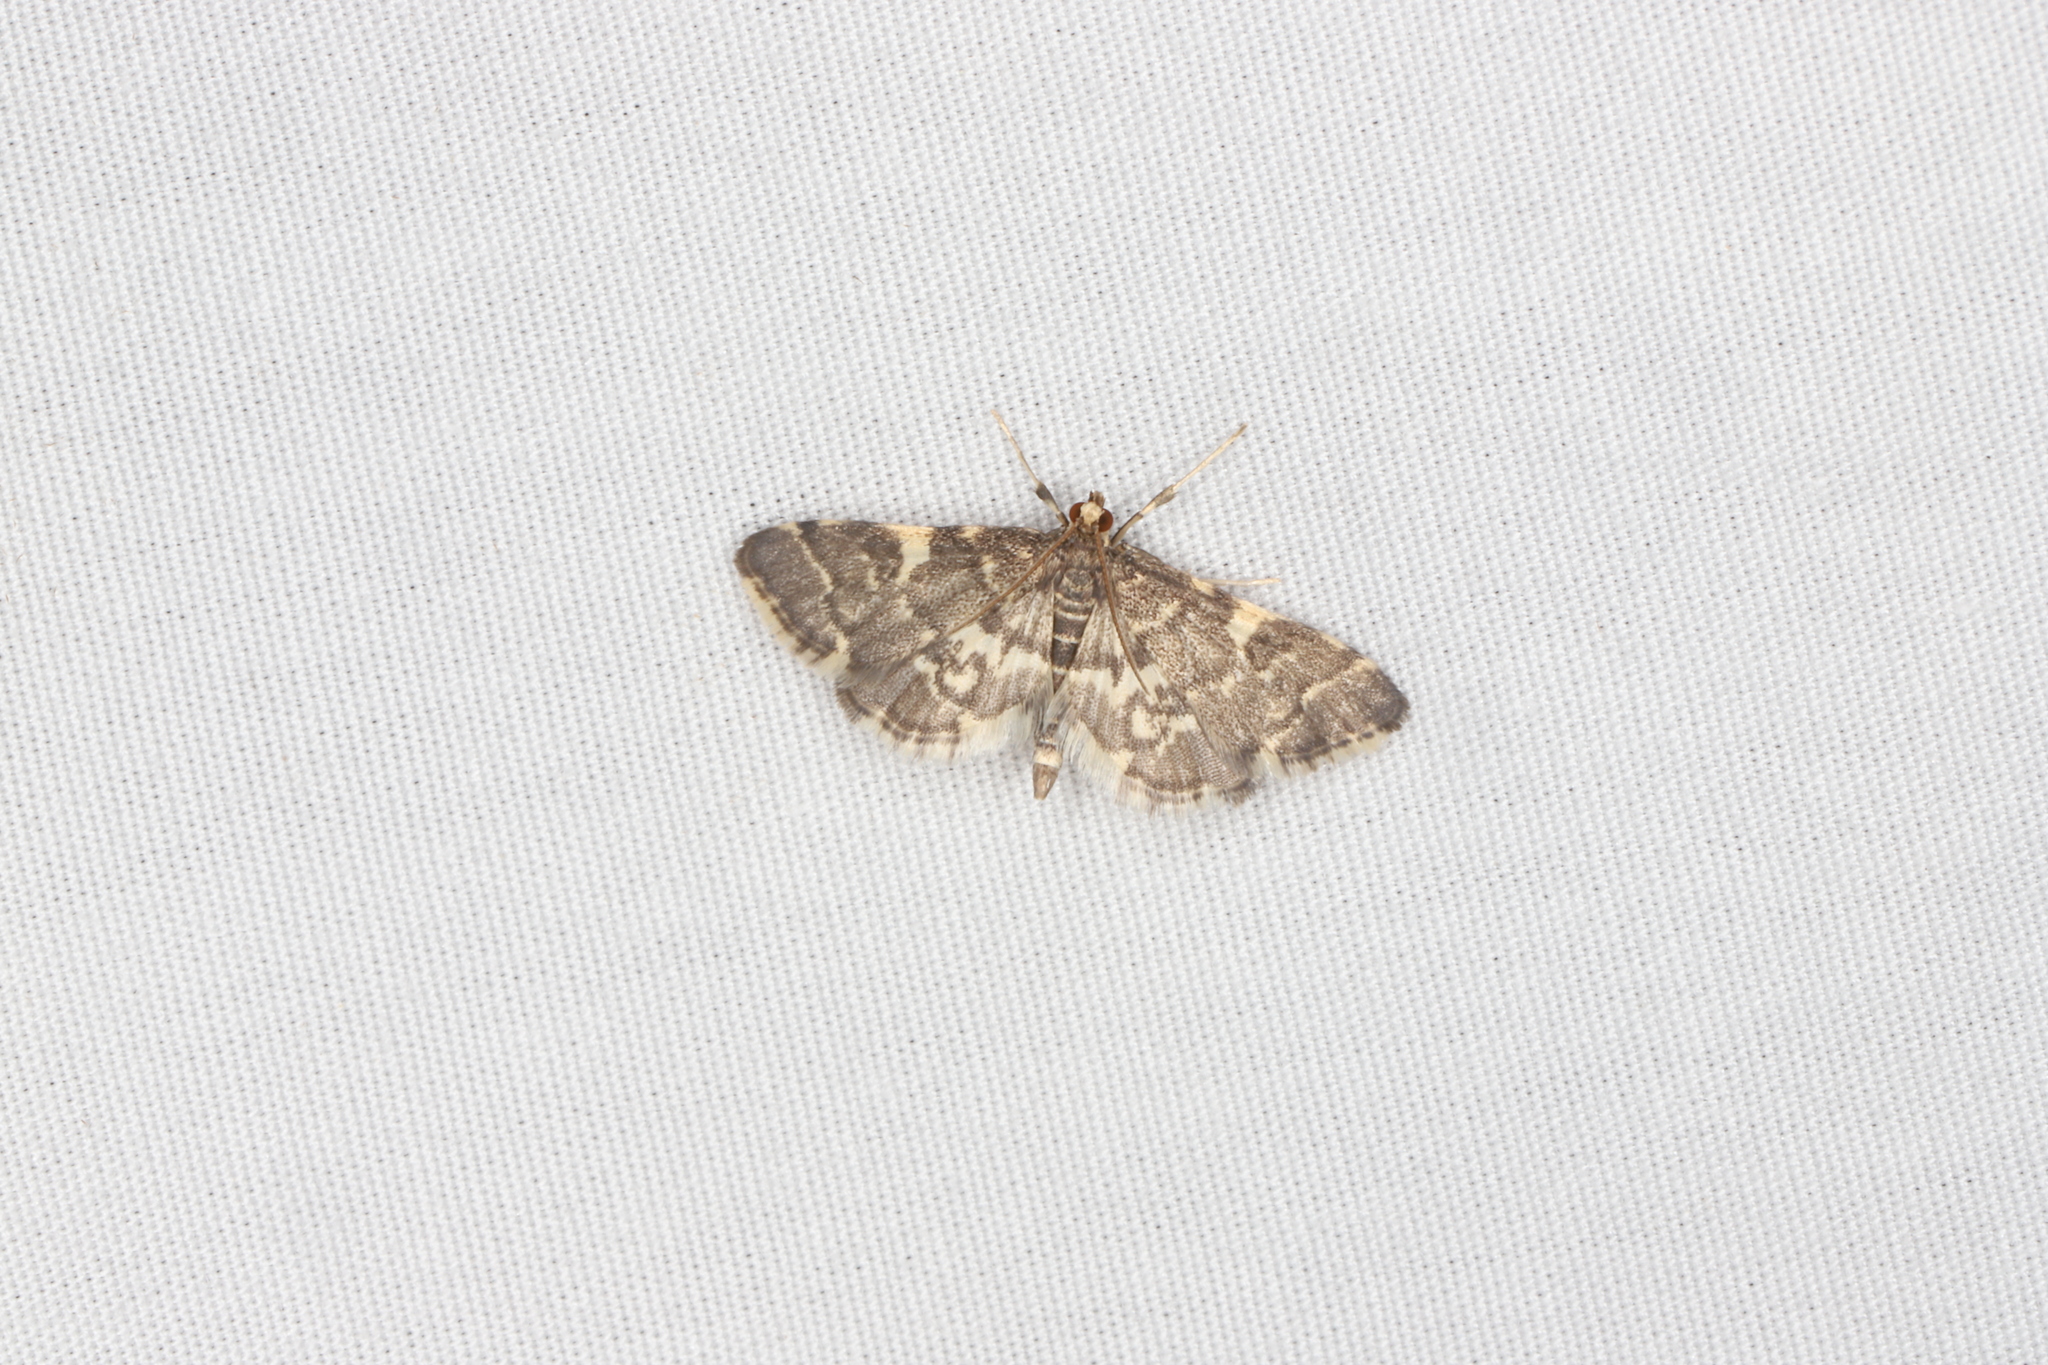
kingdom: Animalia
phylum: Arthropoda
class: Insecta
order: Lepidoptera
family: Crambidae
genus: Anageshna
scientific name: Anageshna primordialis
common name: Yellow-spotted webworm moth
